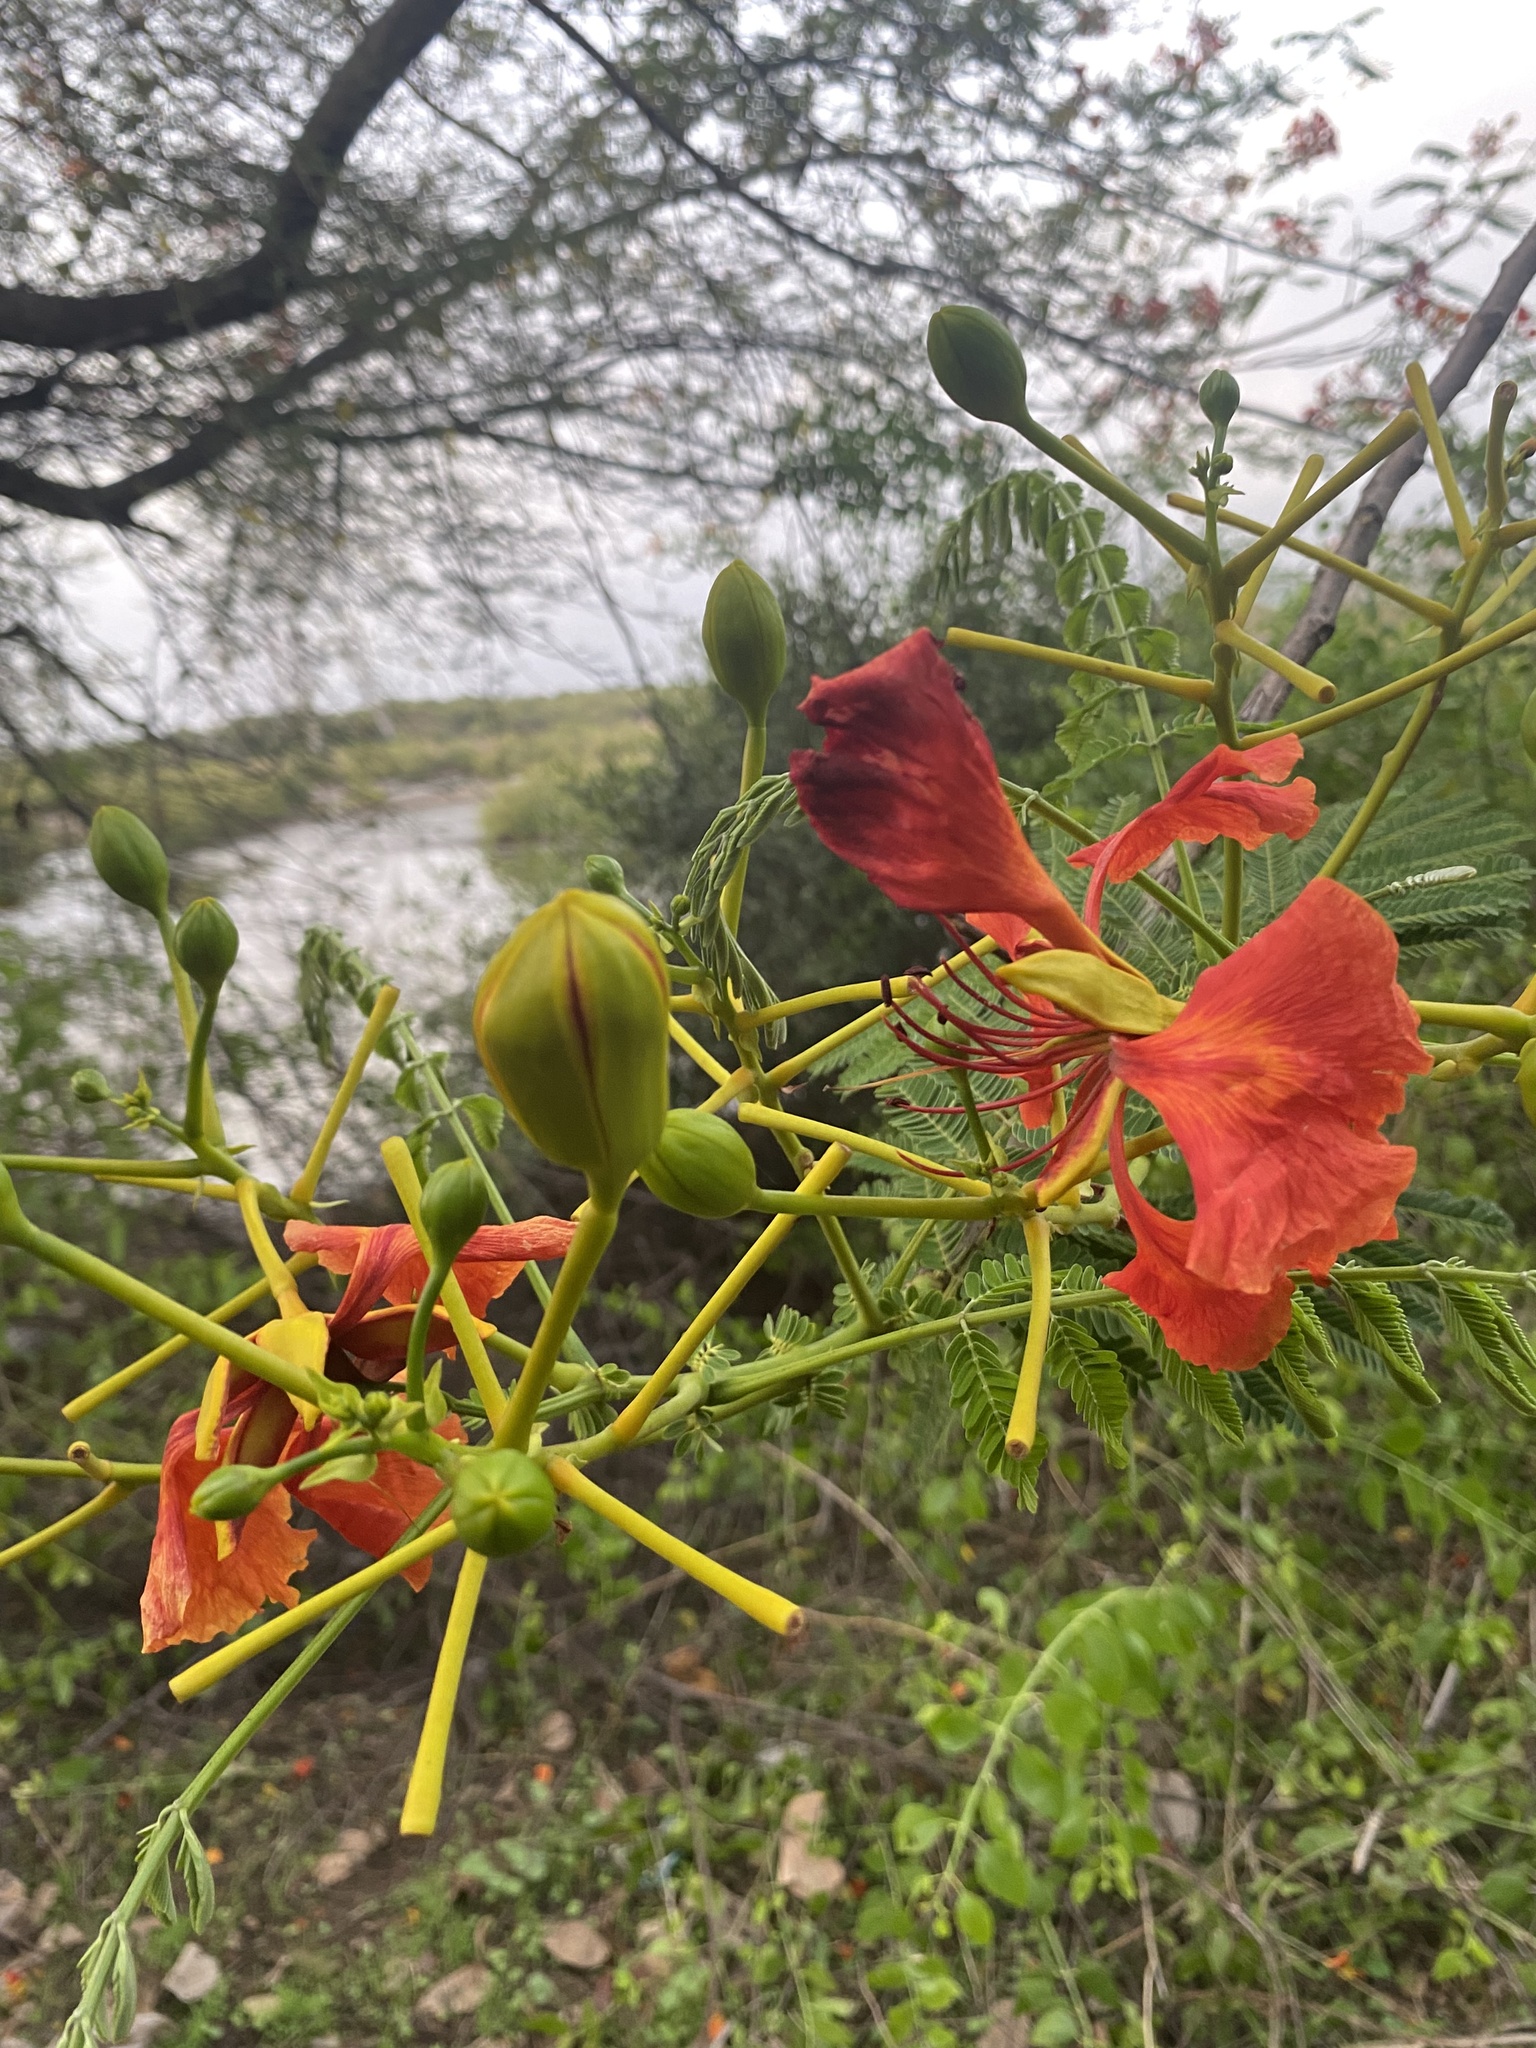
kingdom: Plantae
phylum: Tracheophyta
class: Magnoliopsida
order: Fabales
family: Fabaceae
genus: Delonix
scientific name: Delonix regia
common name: Royal poinciana
